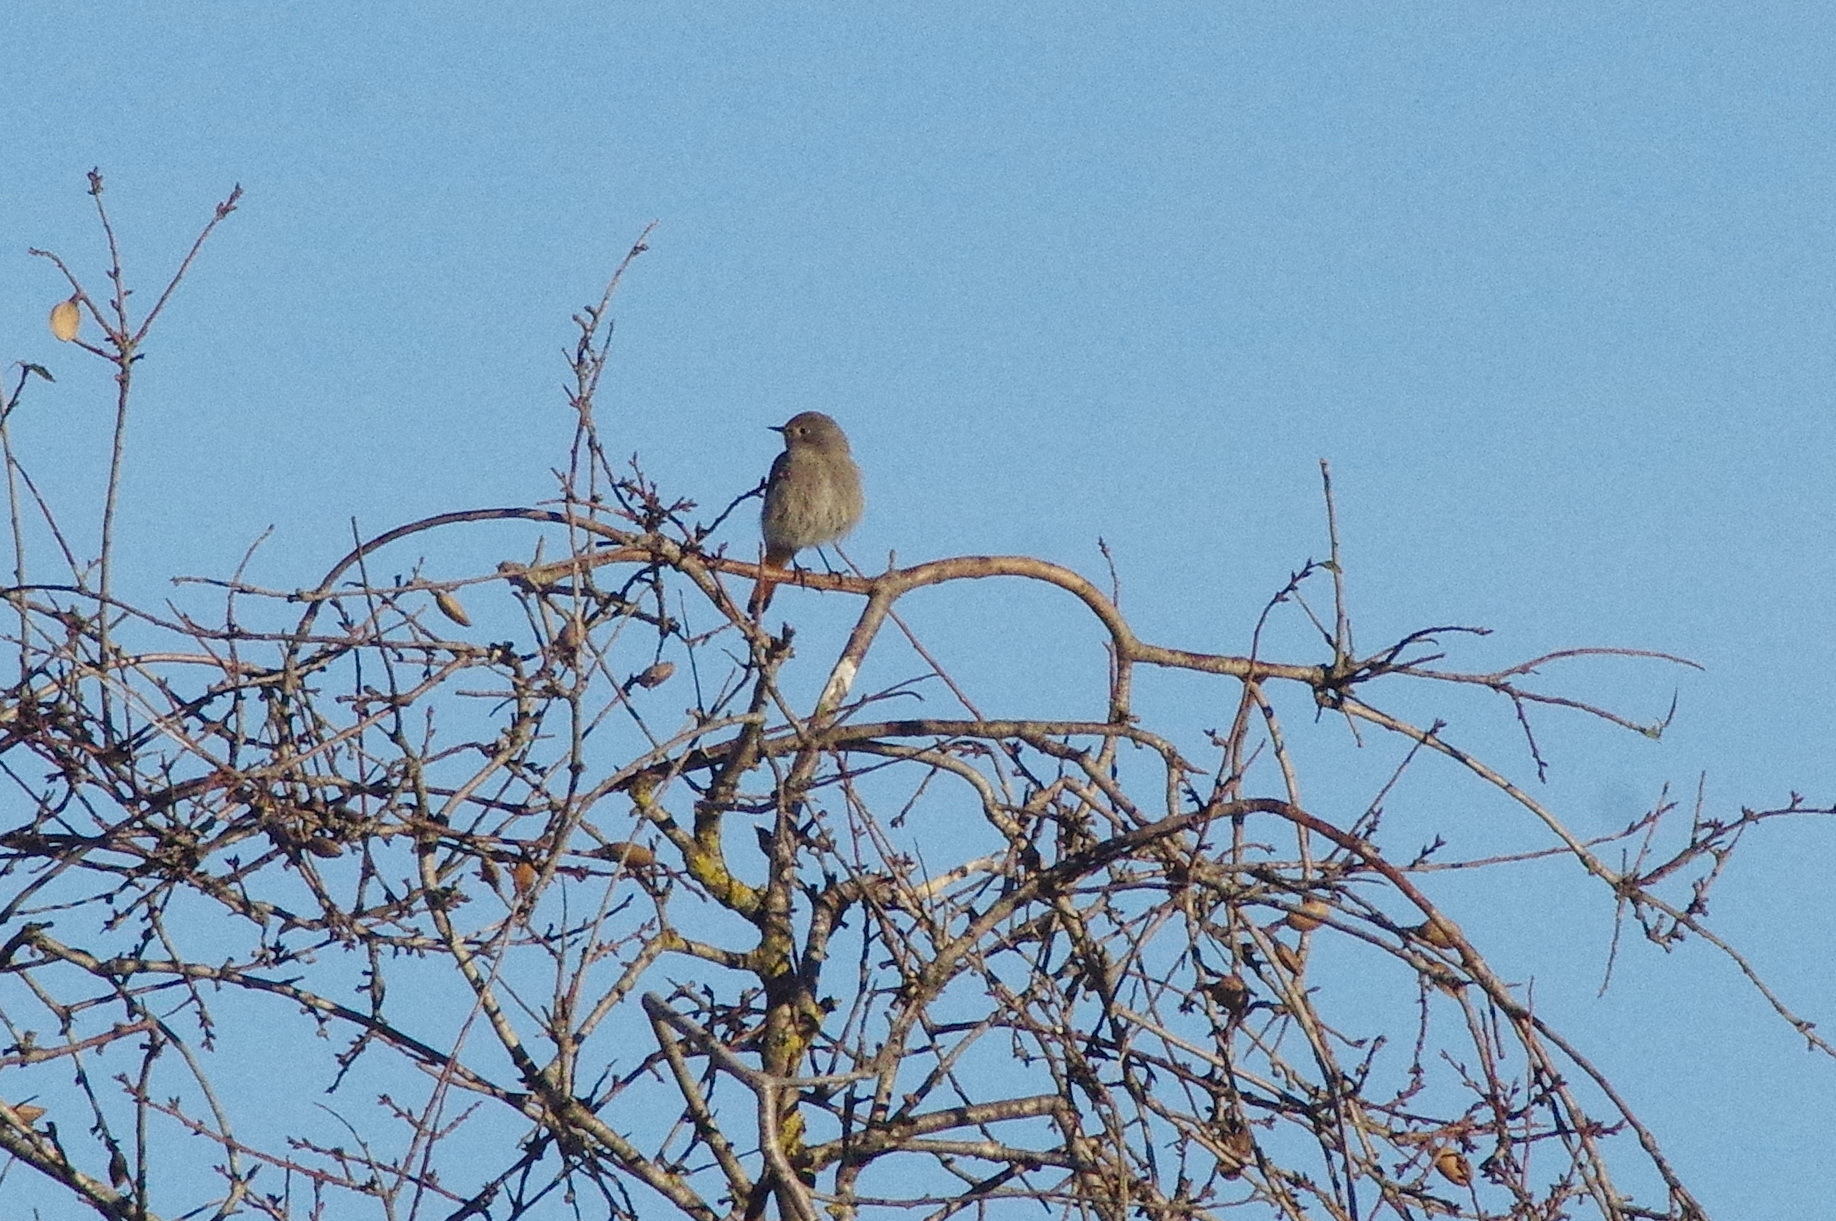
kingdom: Animalia
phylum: Chordata
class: Aves
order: Passeriformes
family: Muscicapidae
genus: Phoenicurus
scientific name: Phoenicurus ochruros
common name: Black redstart
